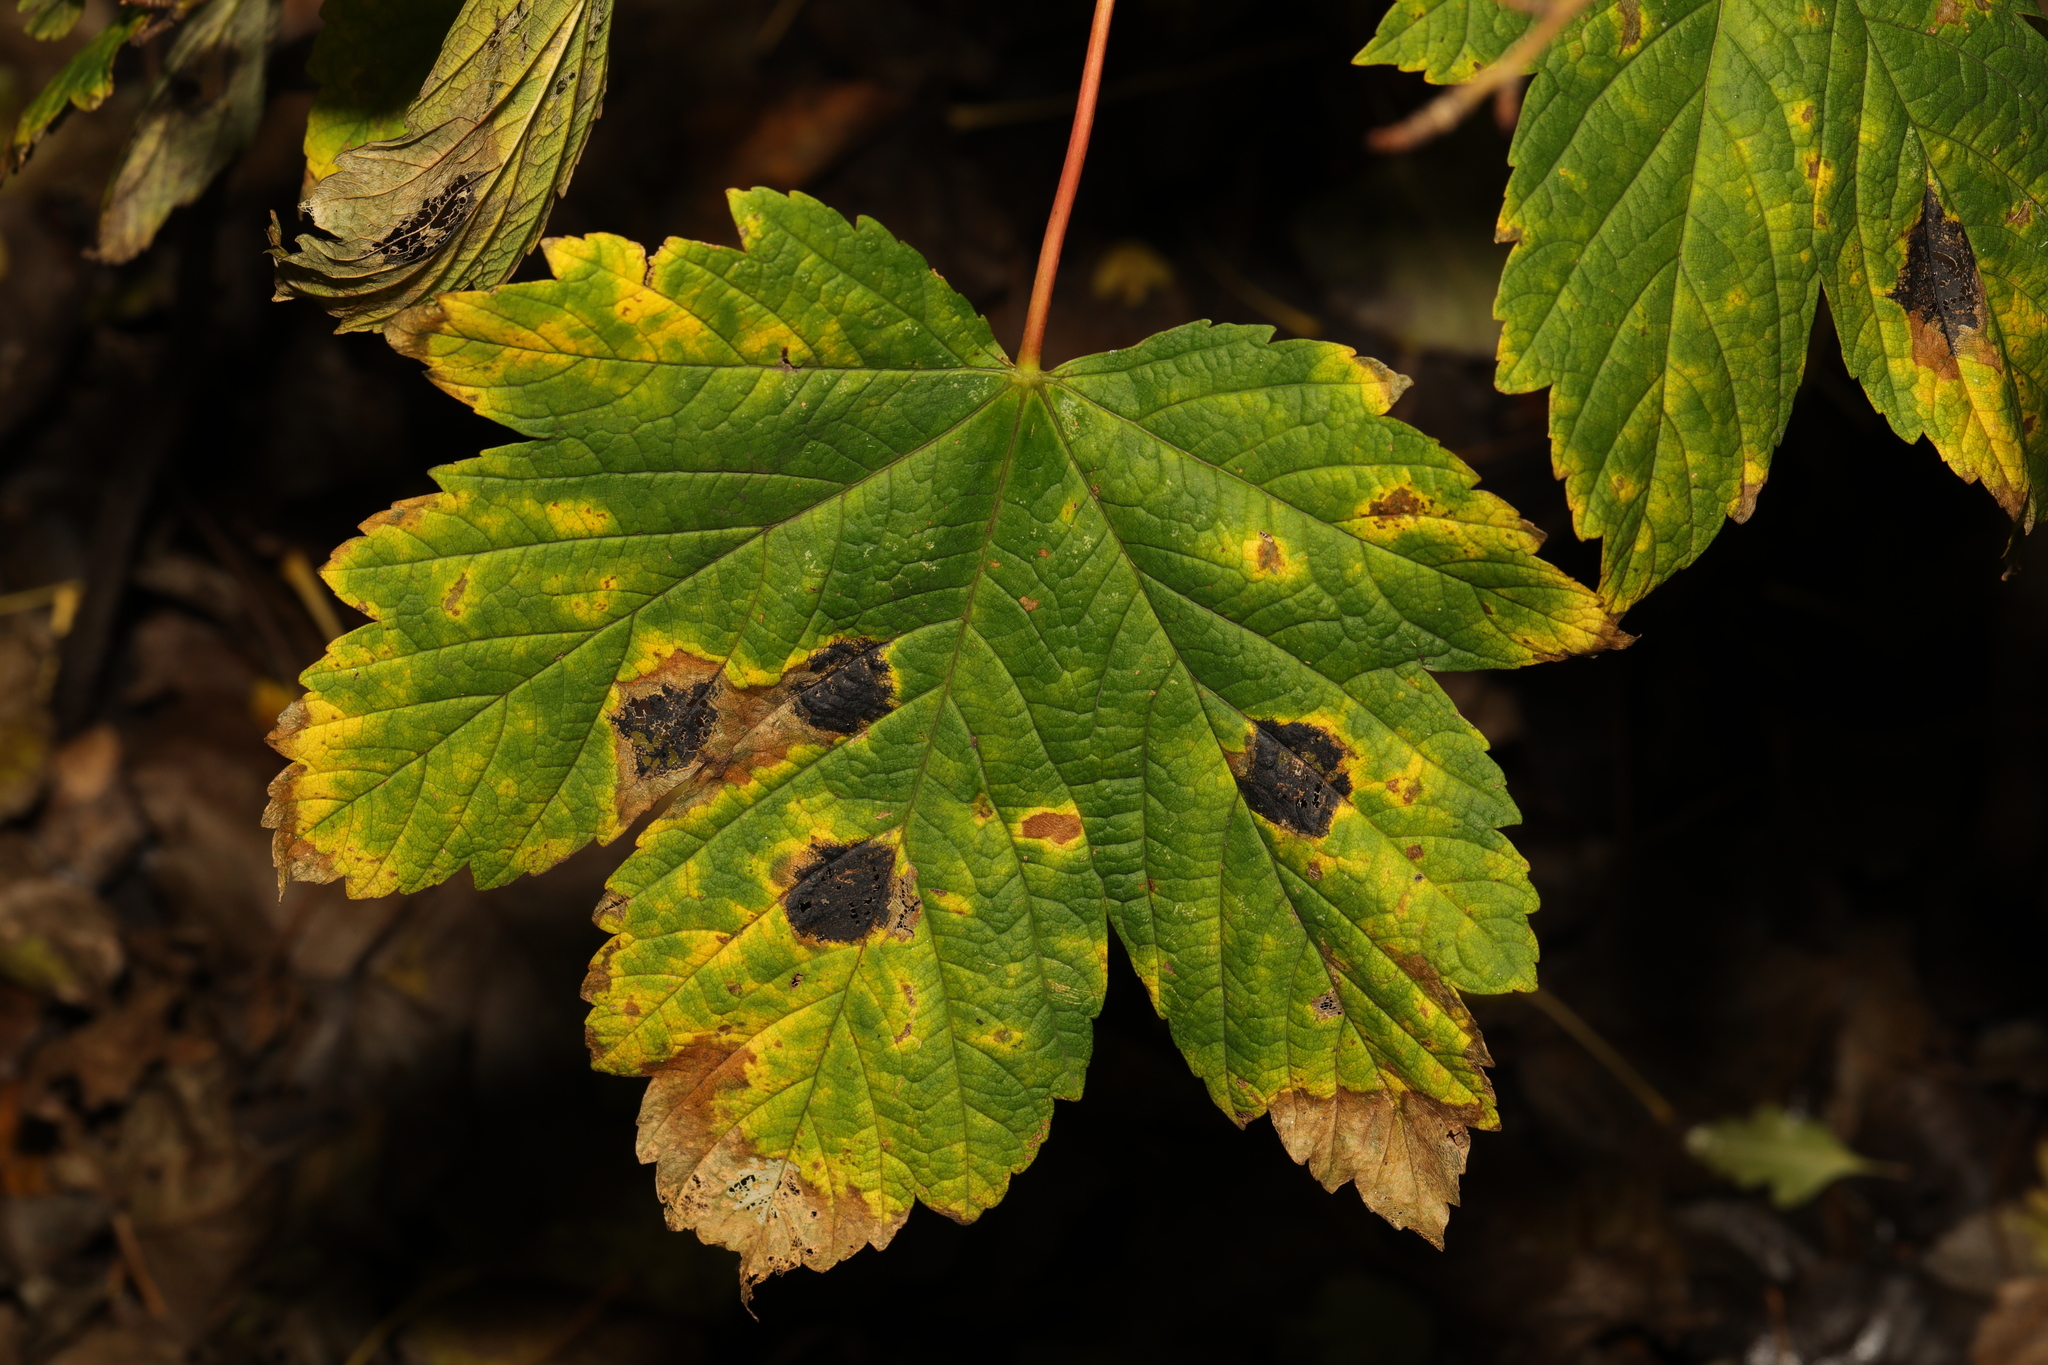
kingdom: Fungi
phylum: Ascomycota
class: Leotiomycetes
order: Rhytismatales
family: Rhytismataceae
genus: Rhytisma
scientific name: Rhytisma acerinum
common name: European tar spot
